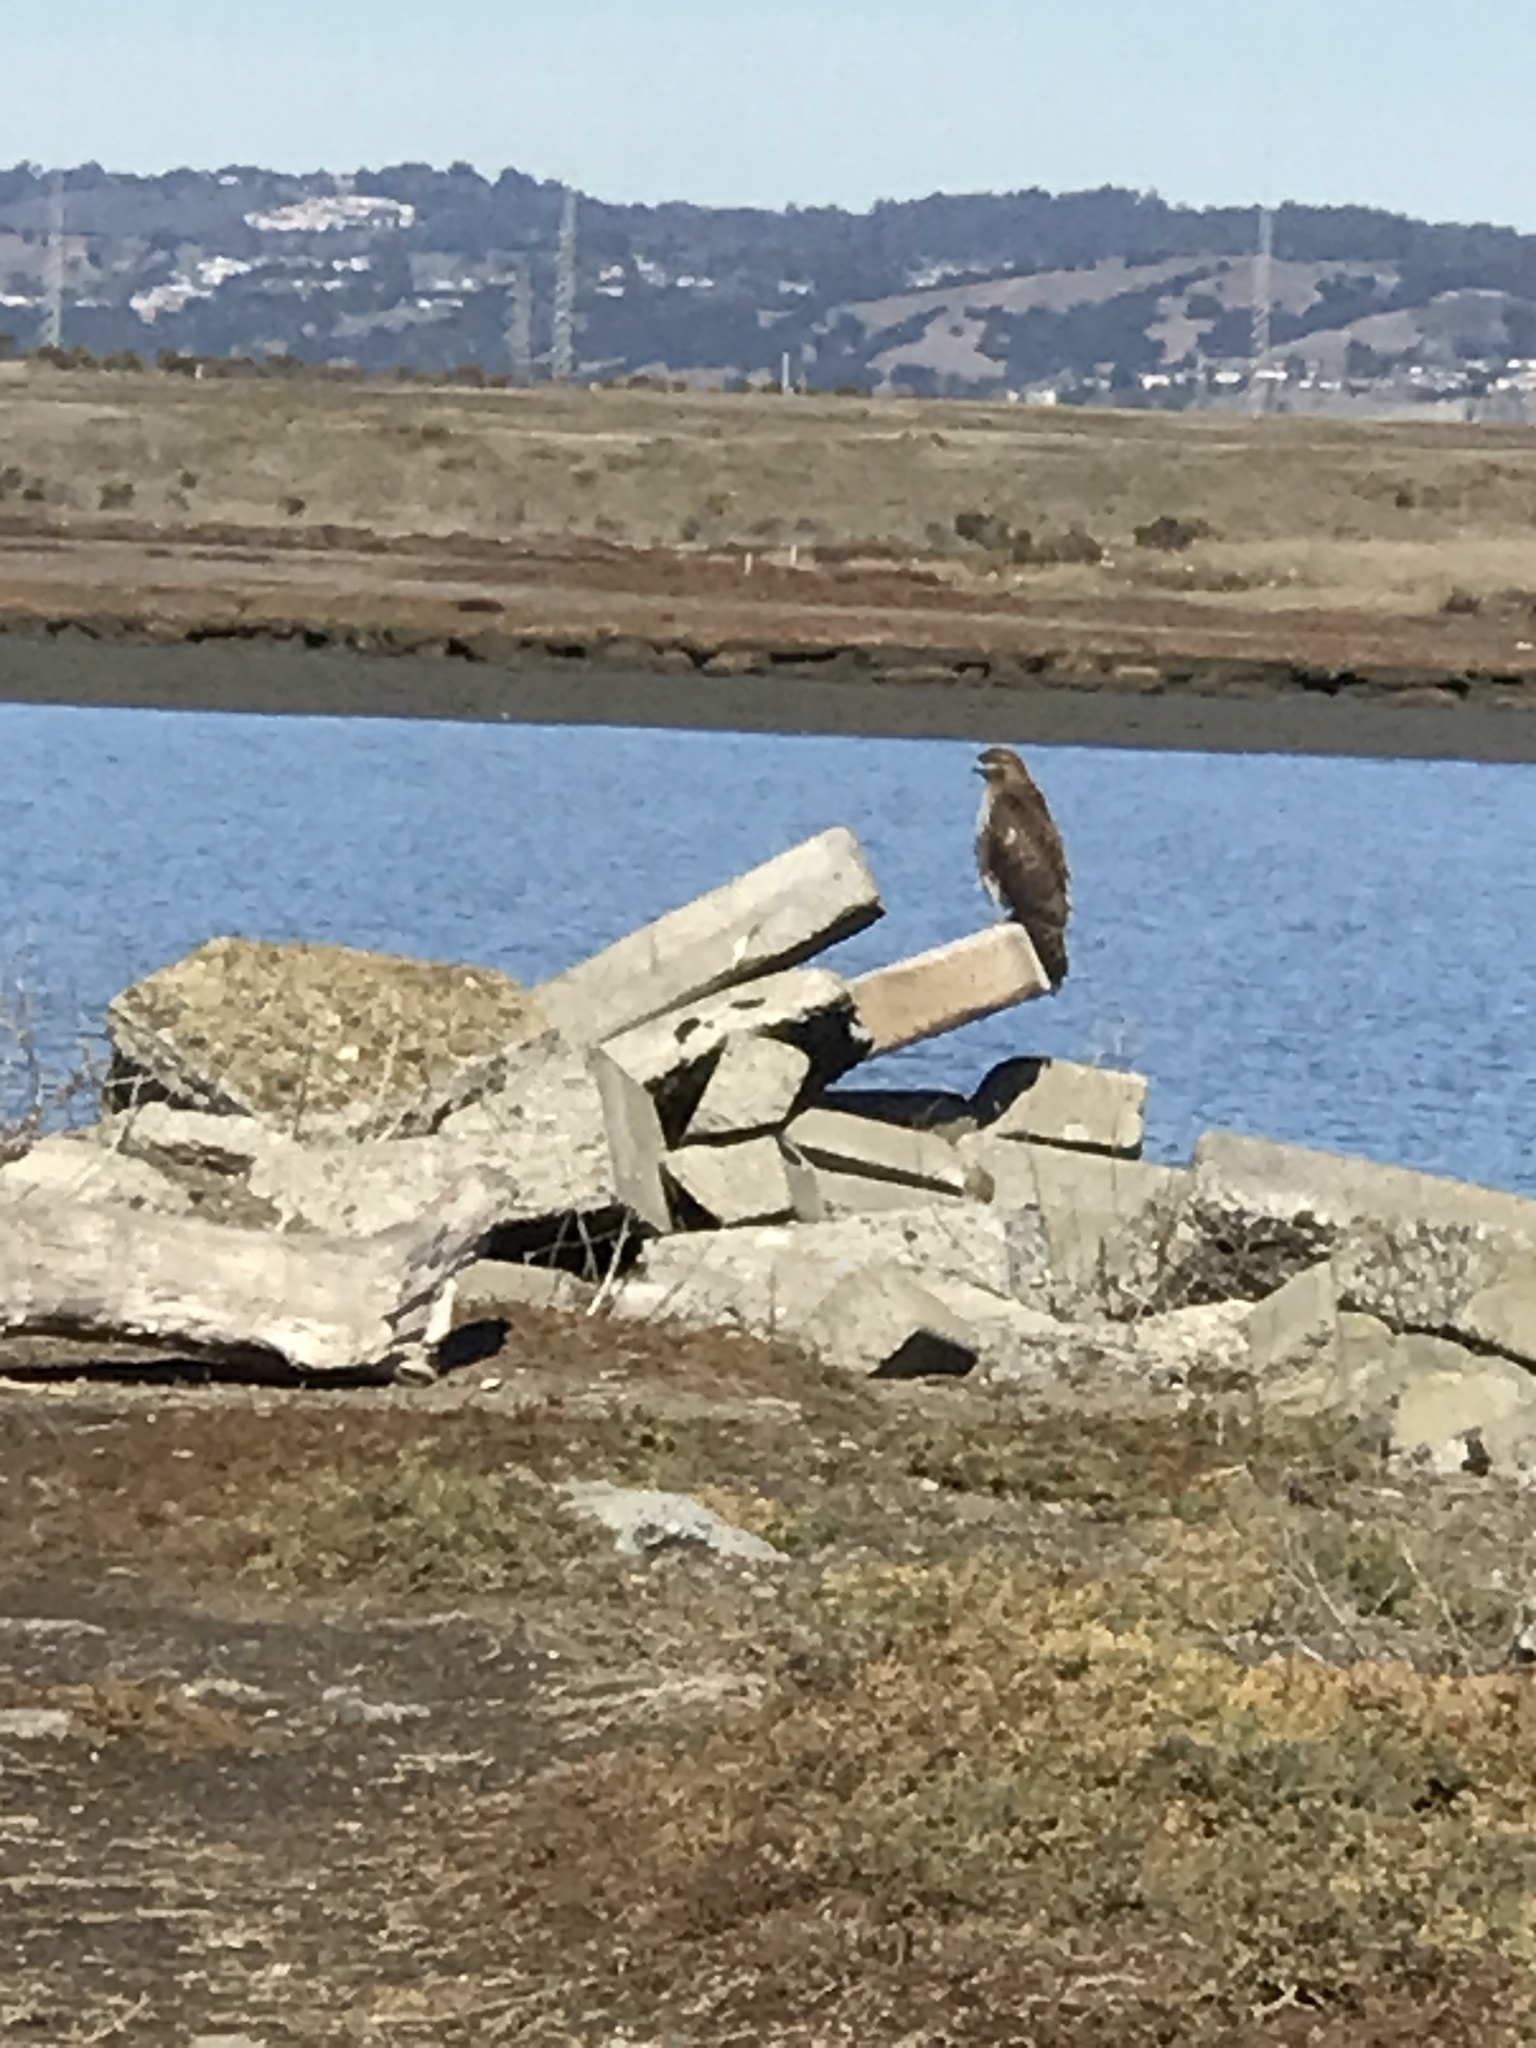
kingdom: Animalia
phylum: Chordata
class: Aves
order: Accipitriformes
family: Accipitridae
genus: Buteo
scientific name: Buteo jamaicensis
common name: Red-tailed hawk
